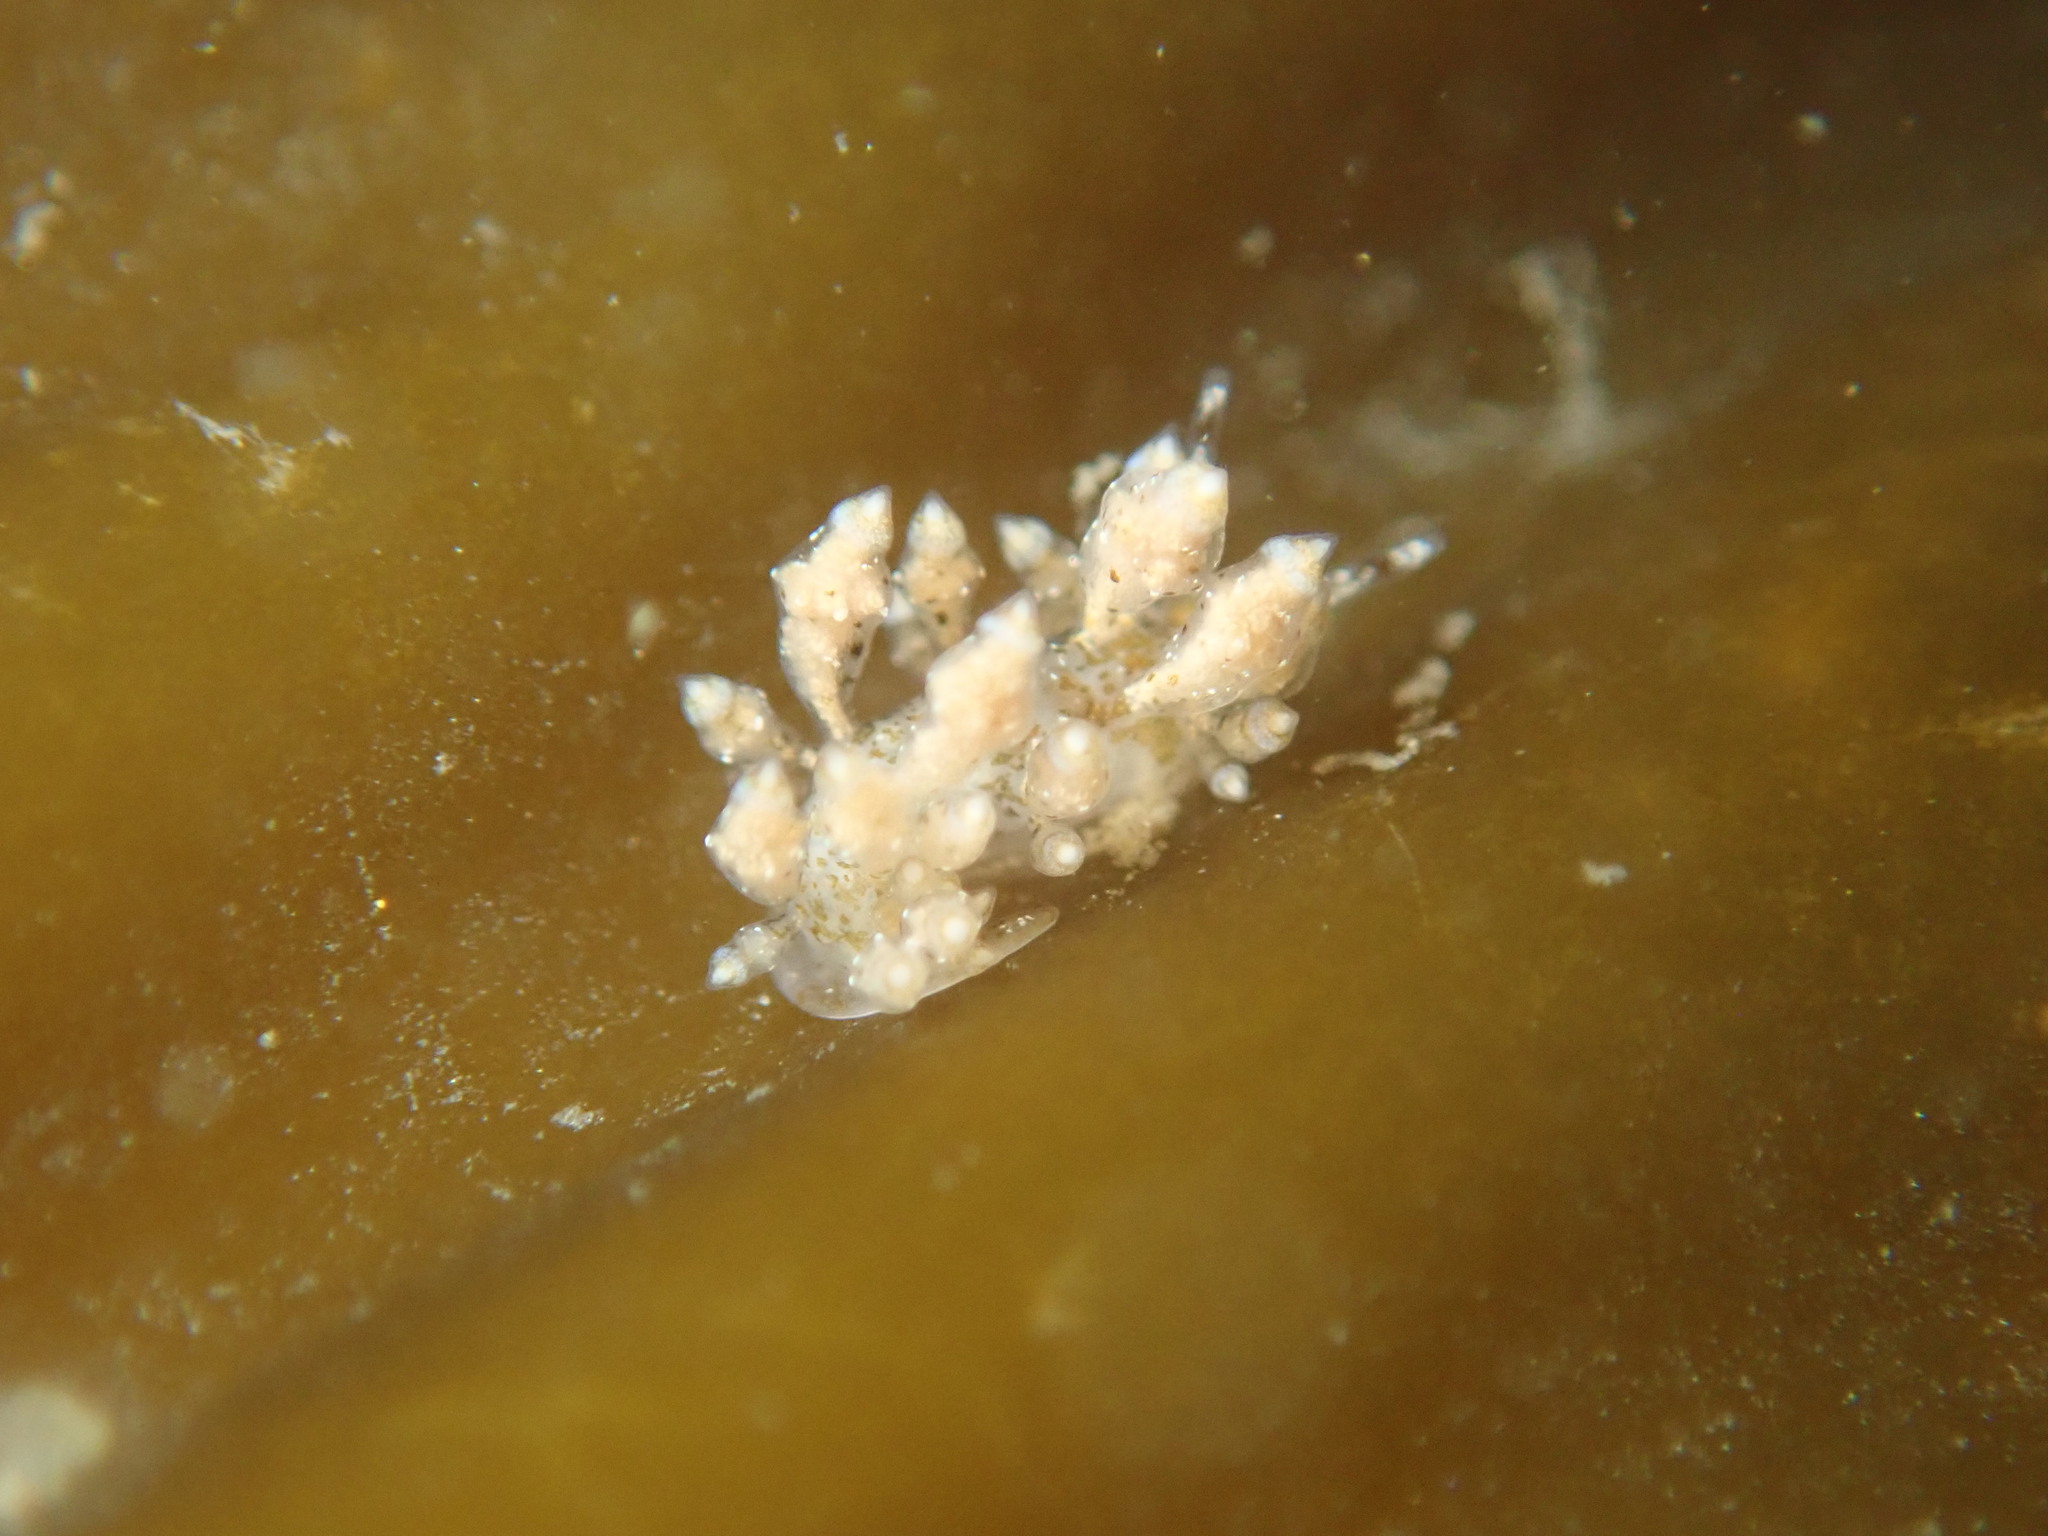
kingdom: Animalia
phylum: Mollusca
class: Gastropoda
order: Nudibranchia
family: Eubranchidae
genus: Eubranchus
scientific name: Eubranchus olivaceus
